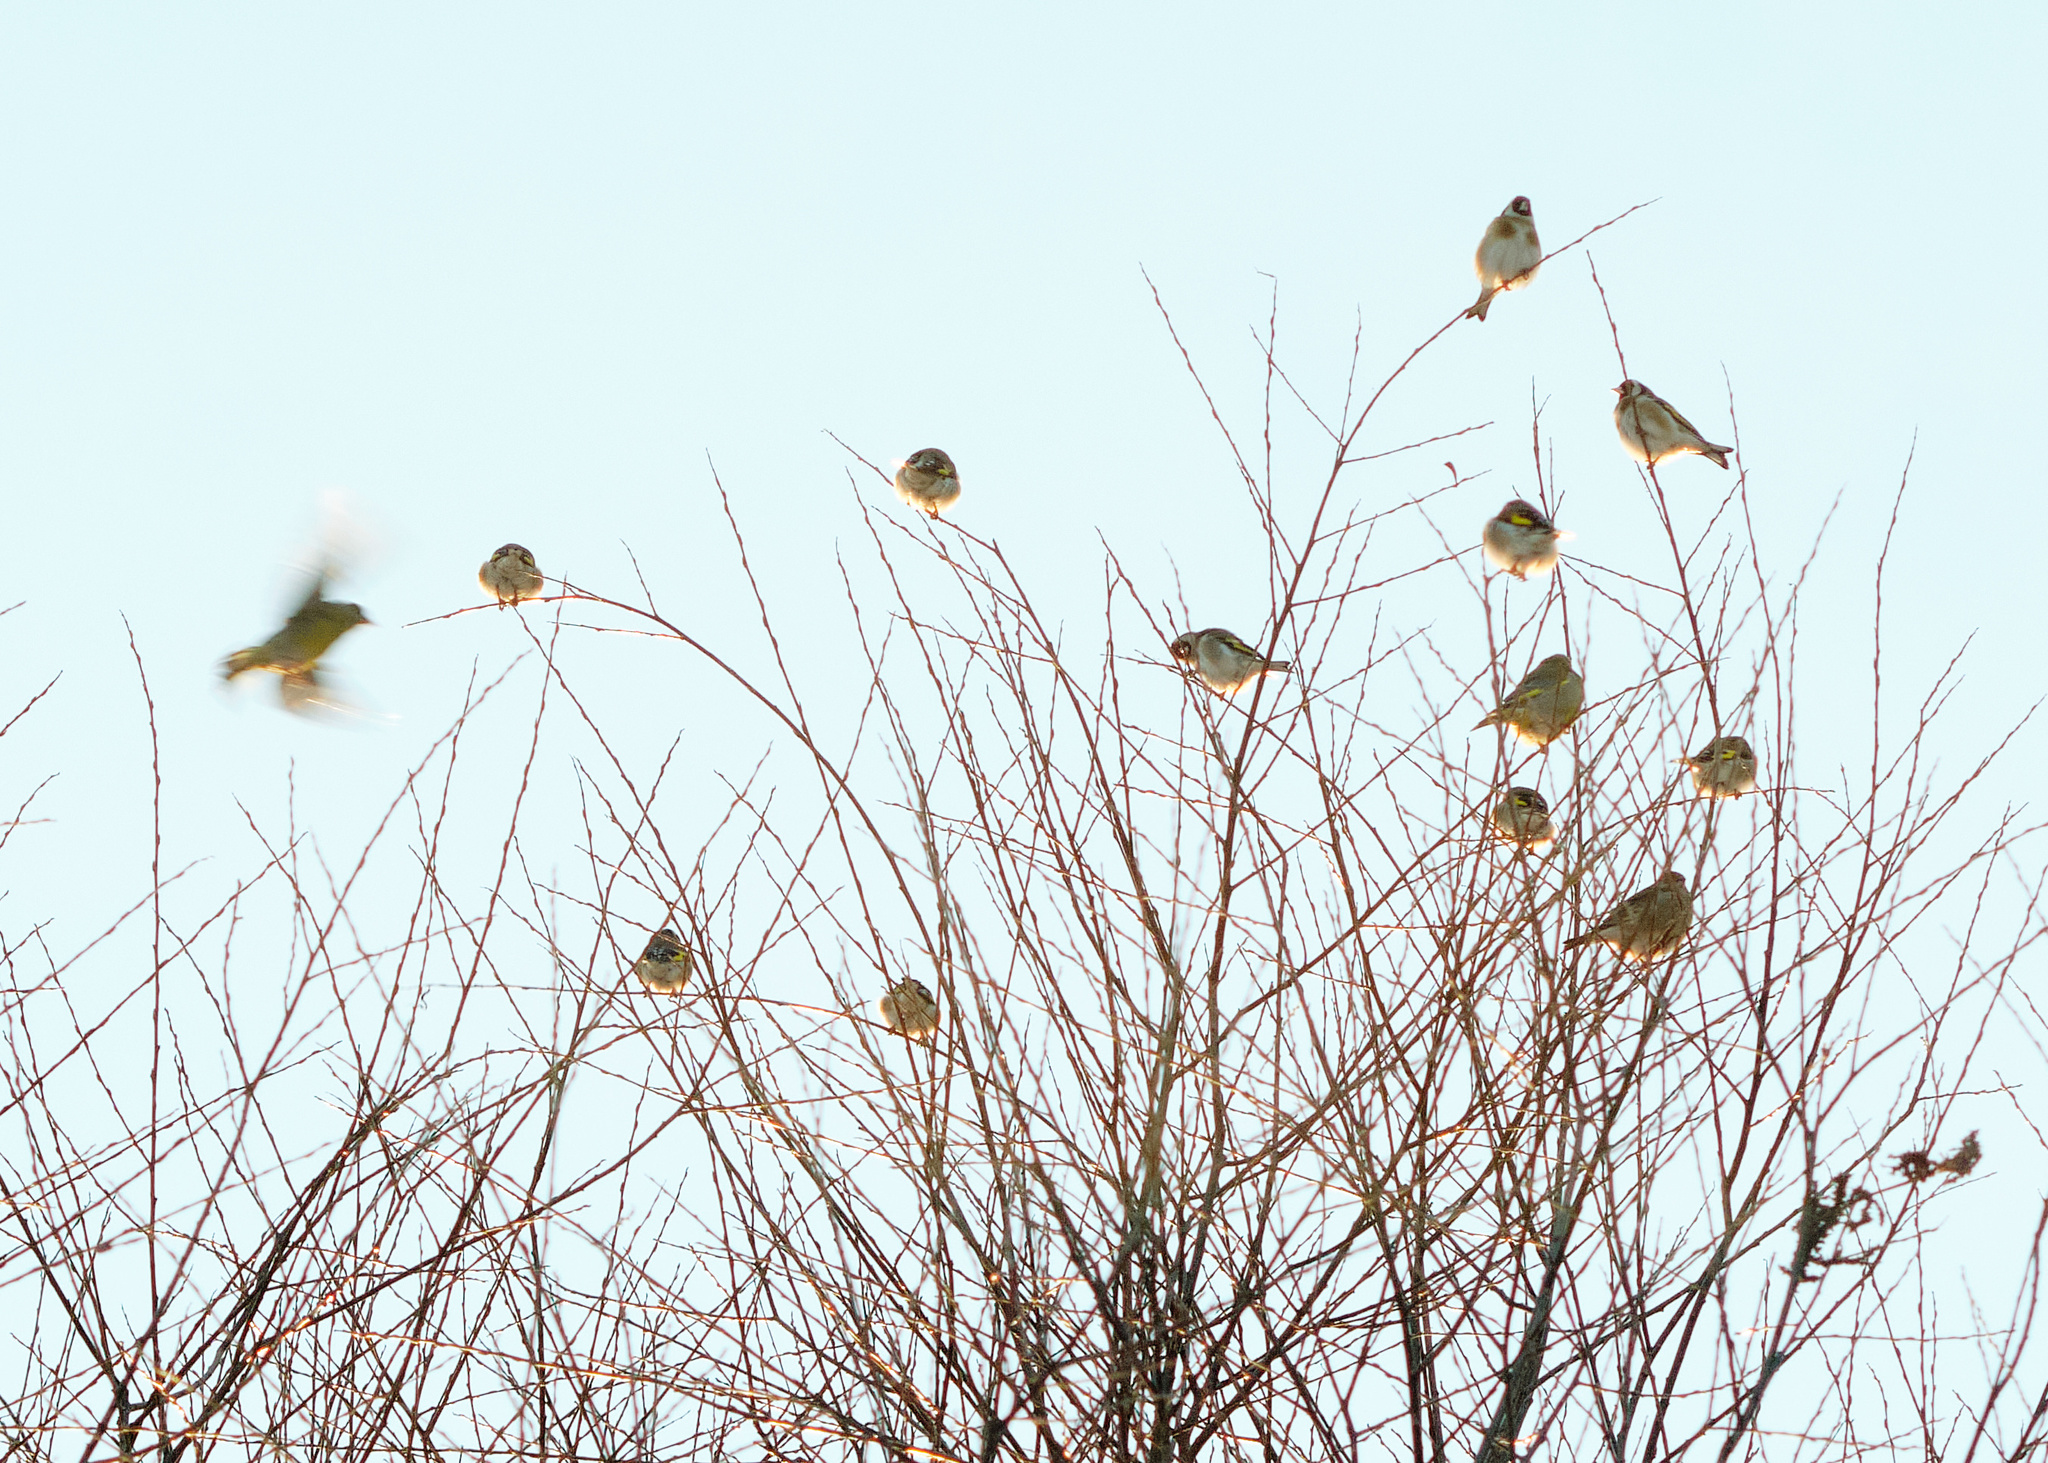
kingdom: Animalia
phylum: Chordata
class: Aves
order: Passeriformes
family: Fringillidae
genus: Carduelis
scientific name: Carduelis carduelis
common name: European goldfinch
